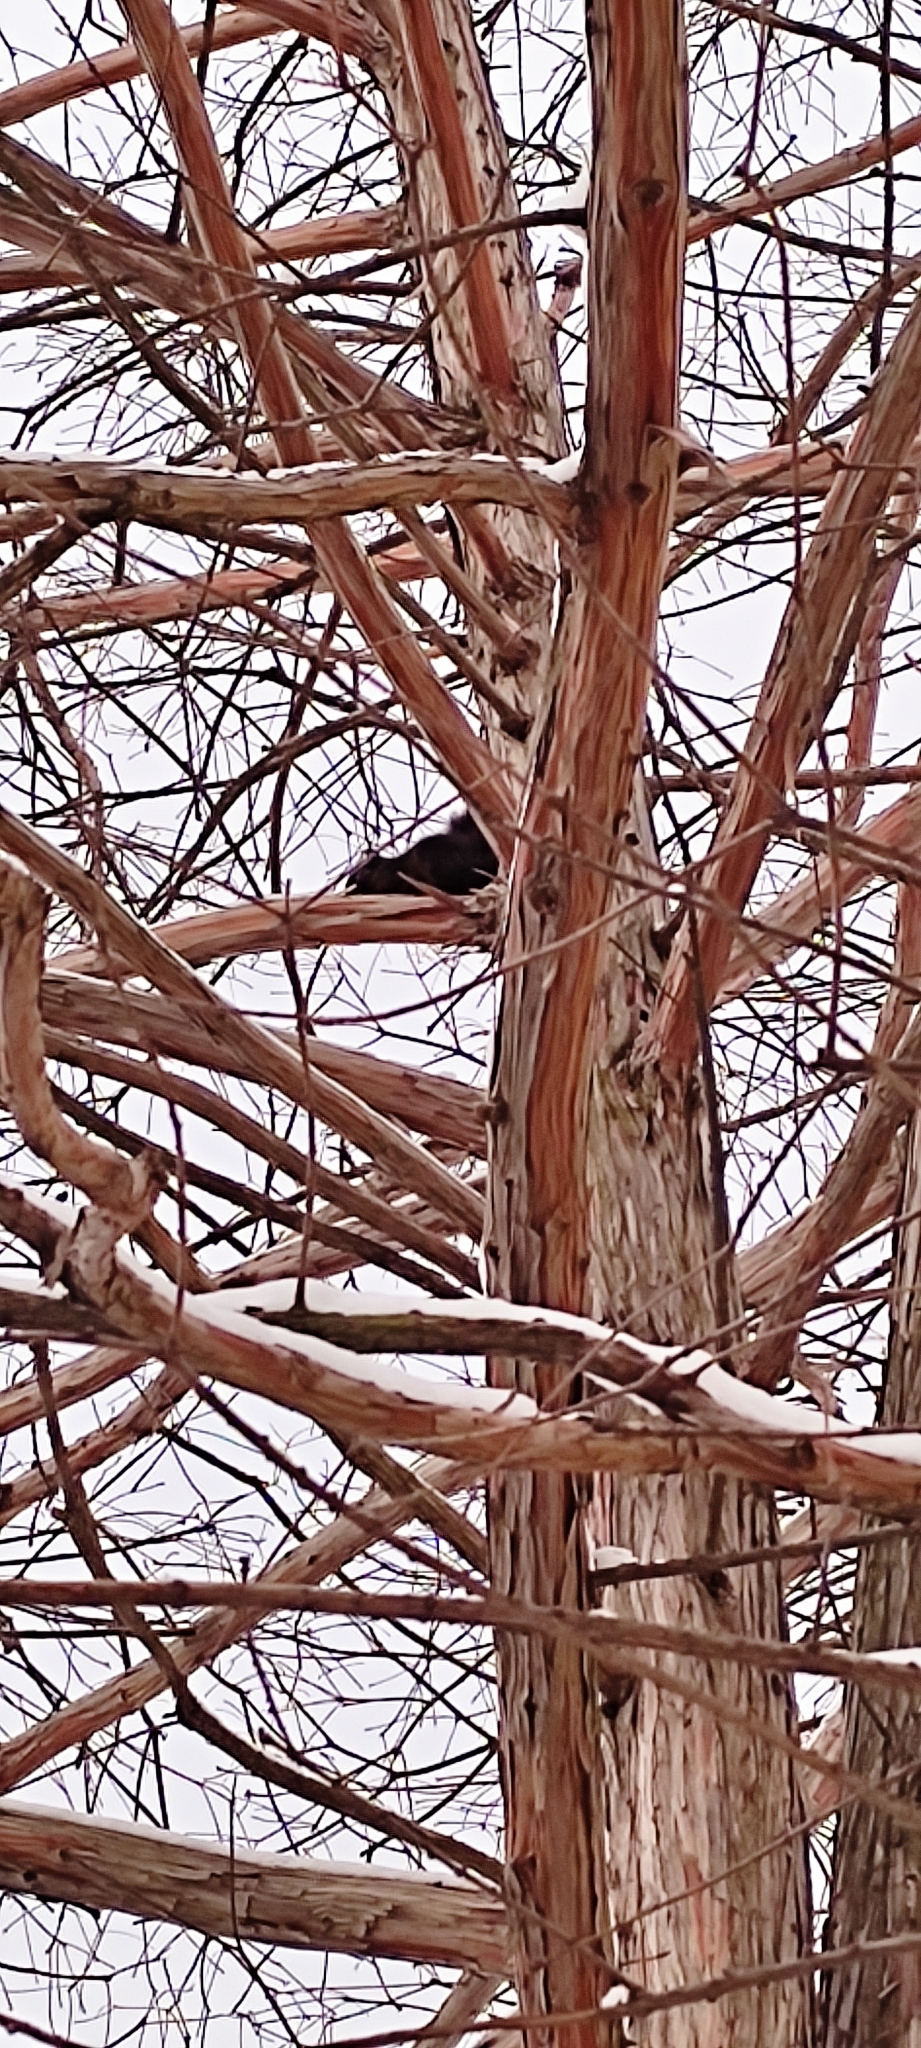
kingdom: Animalia
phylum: Chordata
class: Mammalia
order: Rodentia
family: Sciuridae
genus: Sciurus
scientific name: Sciurus carolinensis
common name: Eastern gray squirrel
